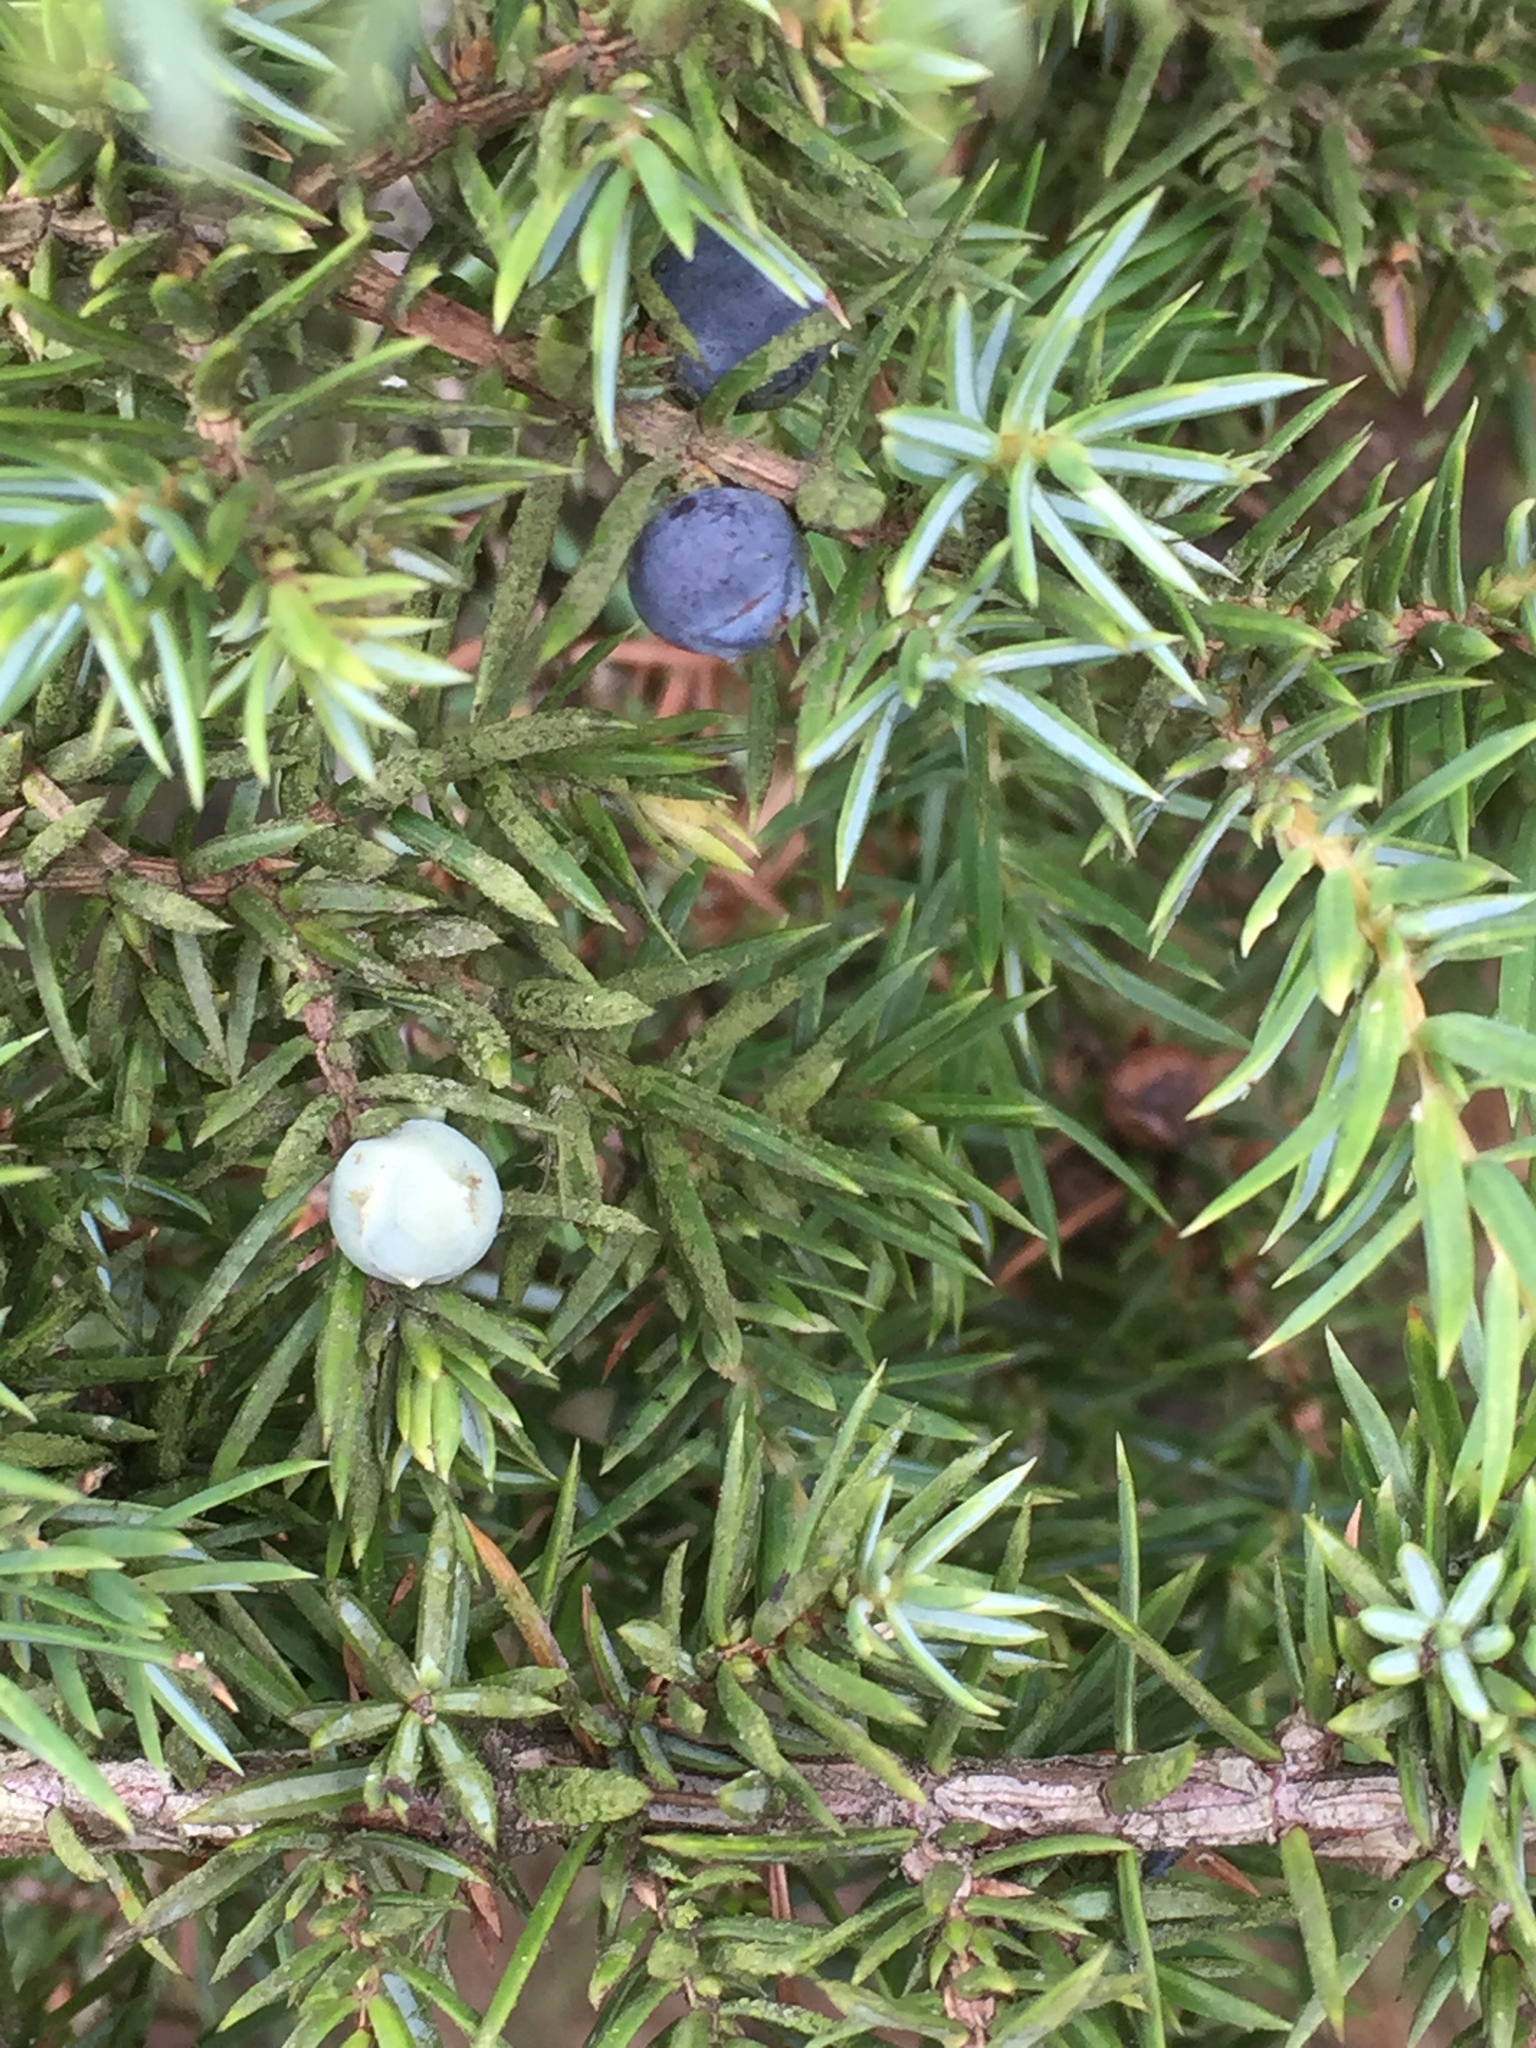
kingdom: Plantae
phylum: Tracheophyta
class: Pinopsida
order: Pinales
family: Cupressaceae
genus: Juniperus
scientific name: Juniperus communis
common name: Common juniper
